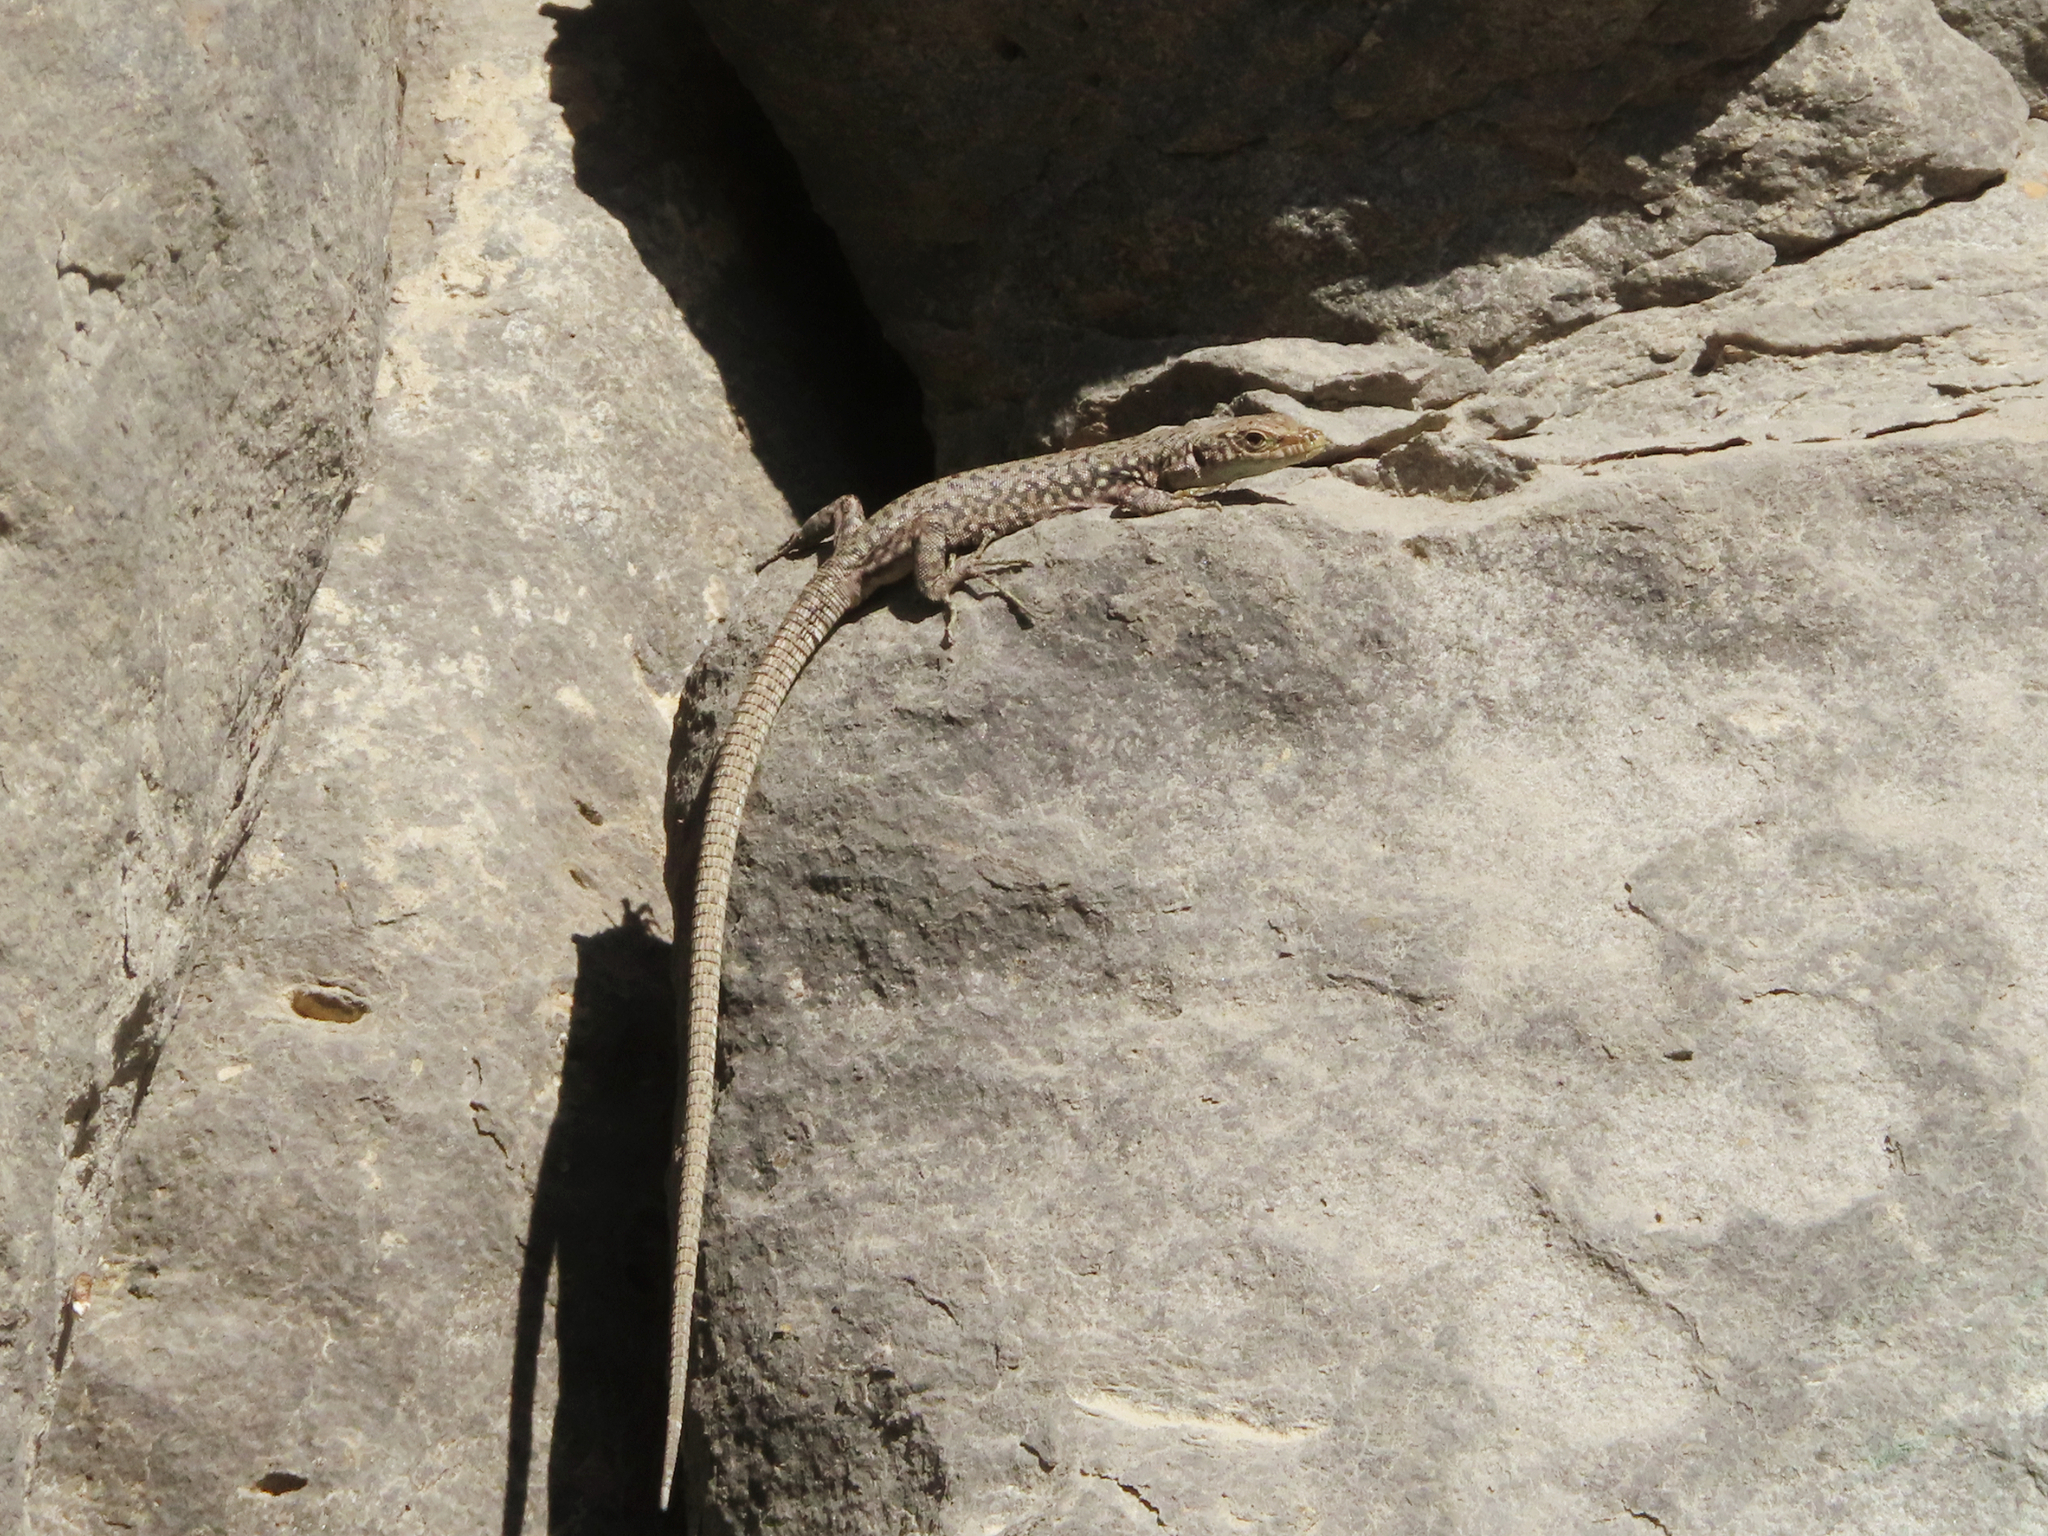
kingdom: Animalia
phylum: Chordata
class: Squamata
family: Lacertidae
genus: Darevskia
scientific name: Darevskia
